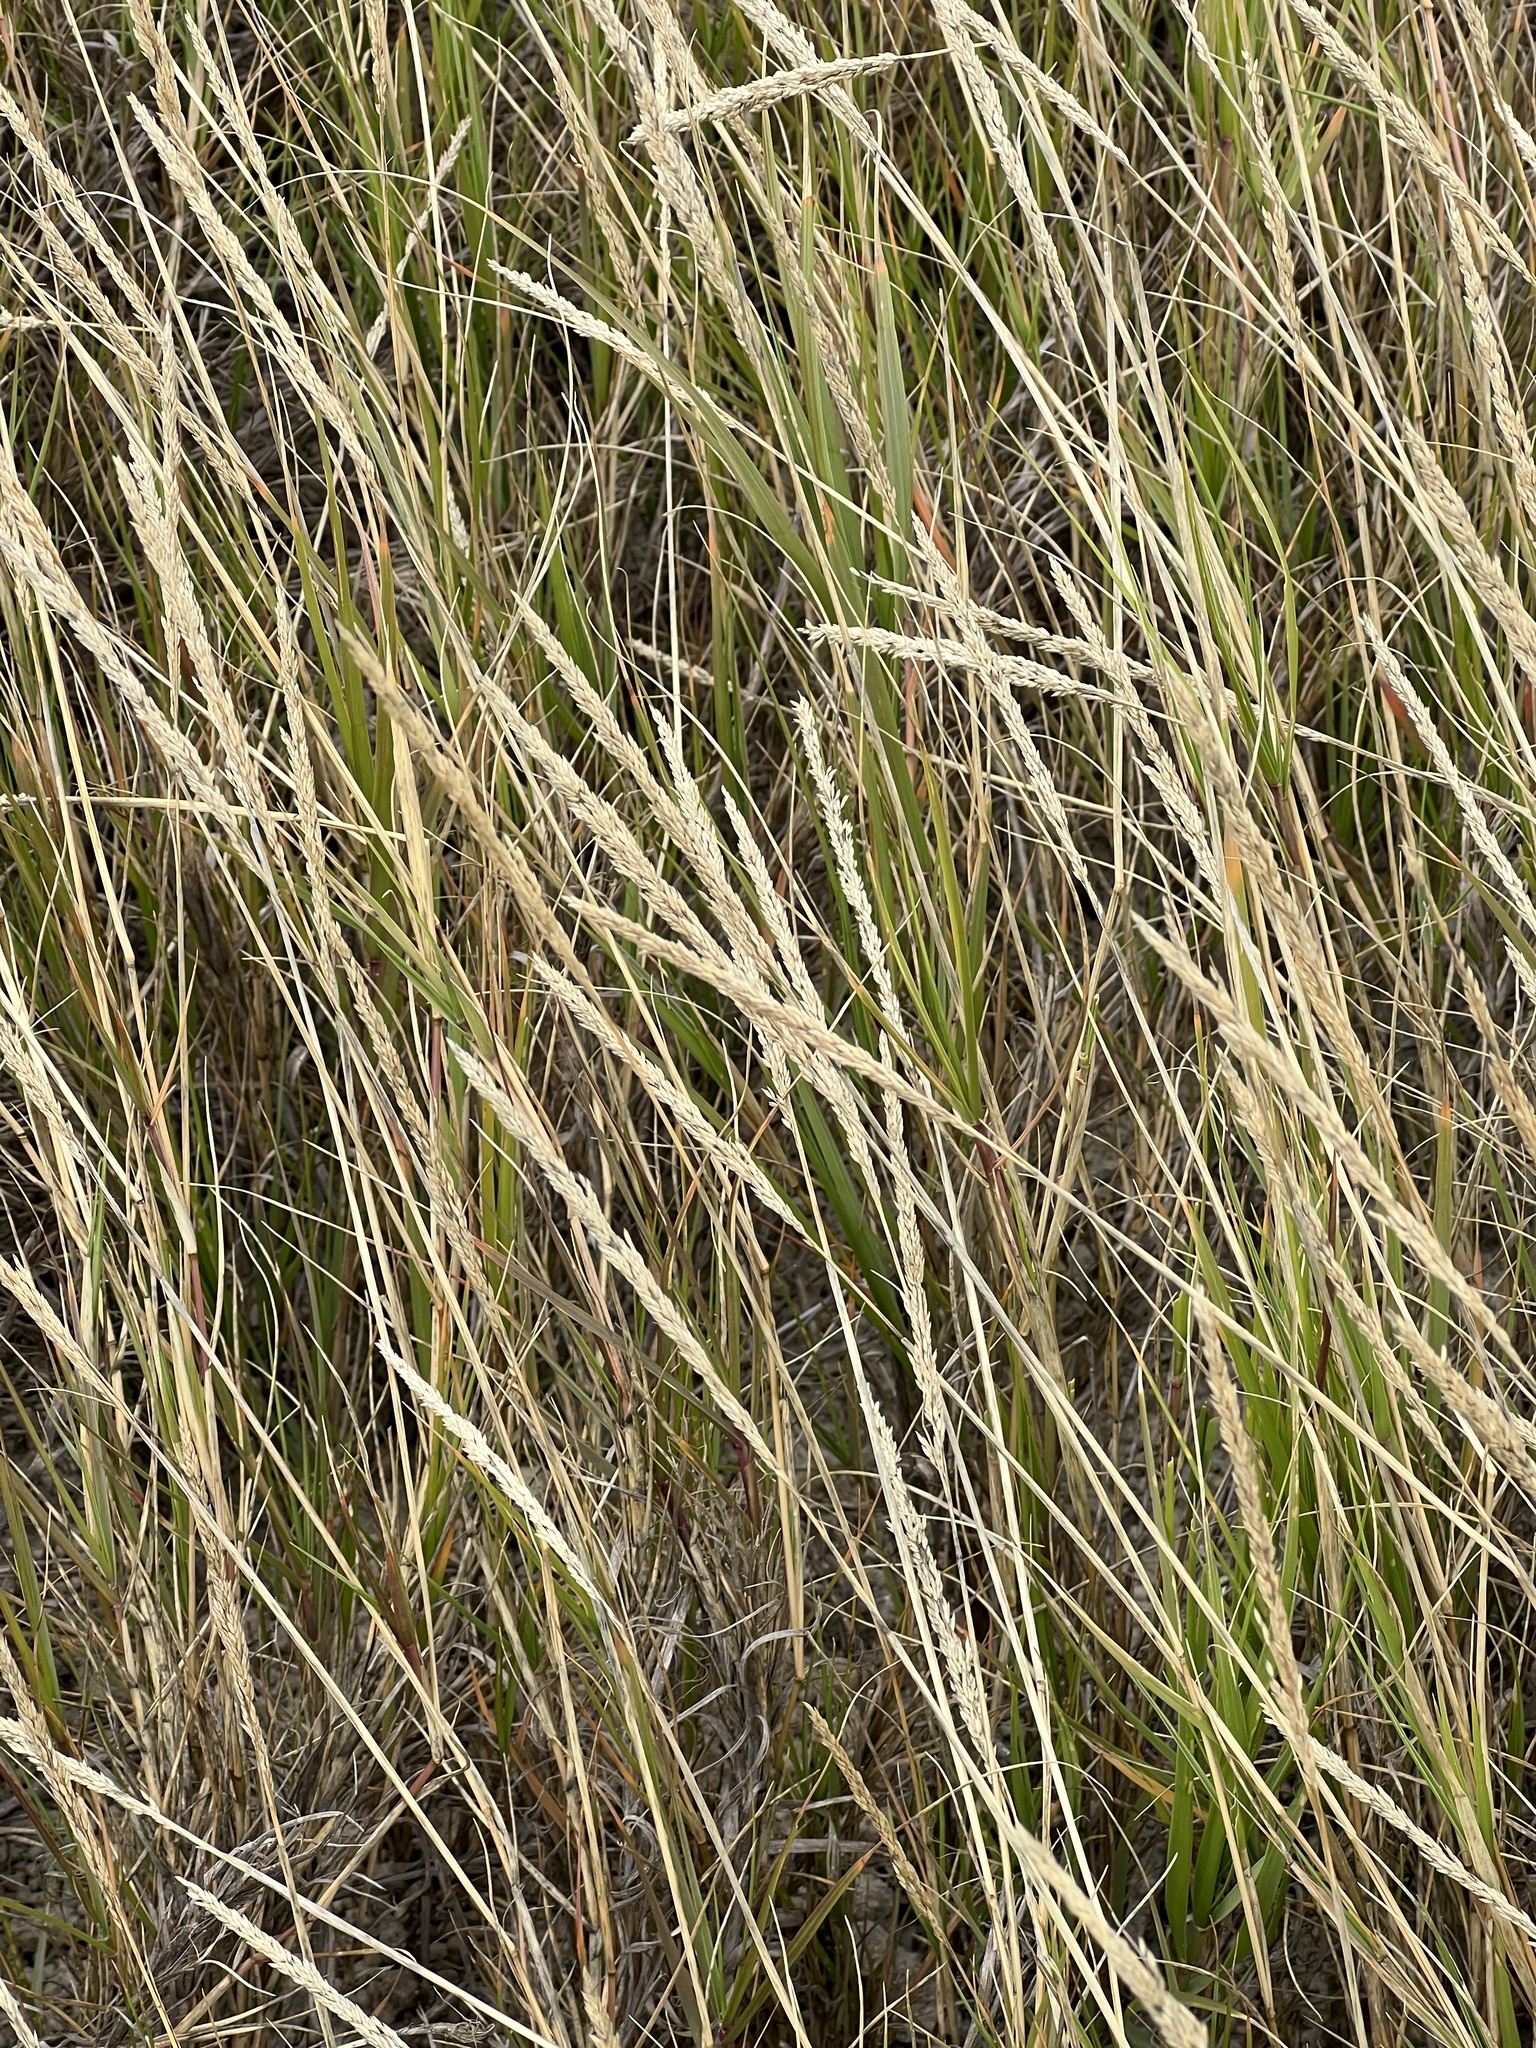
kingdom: Plantae
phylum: Tracheophyta
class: Liliopsida
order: Poales
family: Poaceae
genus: Sporobolus
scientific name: Sporobolus virginicus
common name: Beach dropseed
